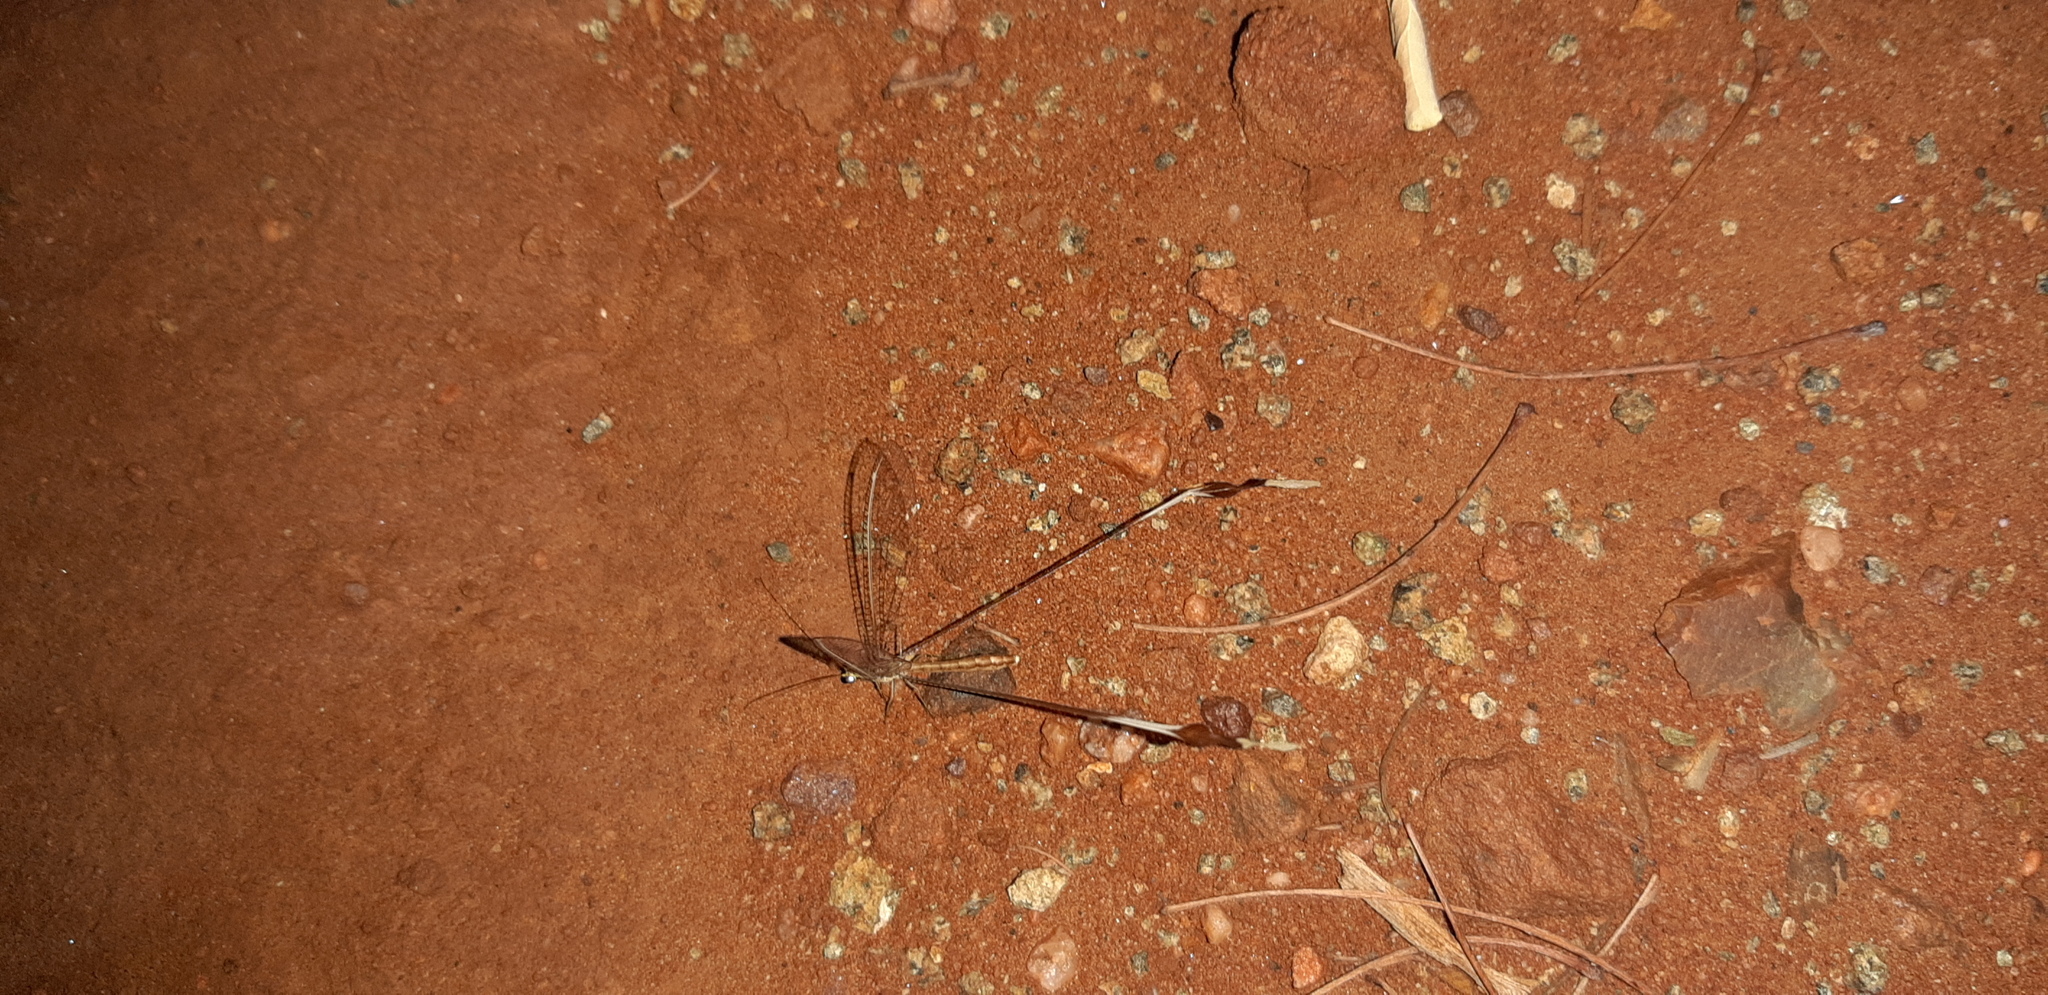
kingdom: Animalia
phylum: Arthropoda
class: Insecta
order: Neuroptera
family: Nemopteridae
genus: Nemeura
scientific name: Nemeura glauningi
